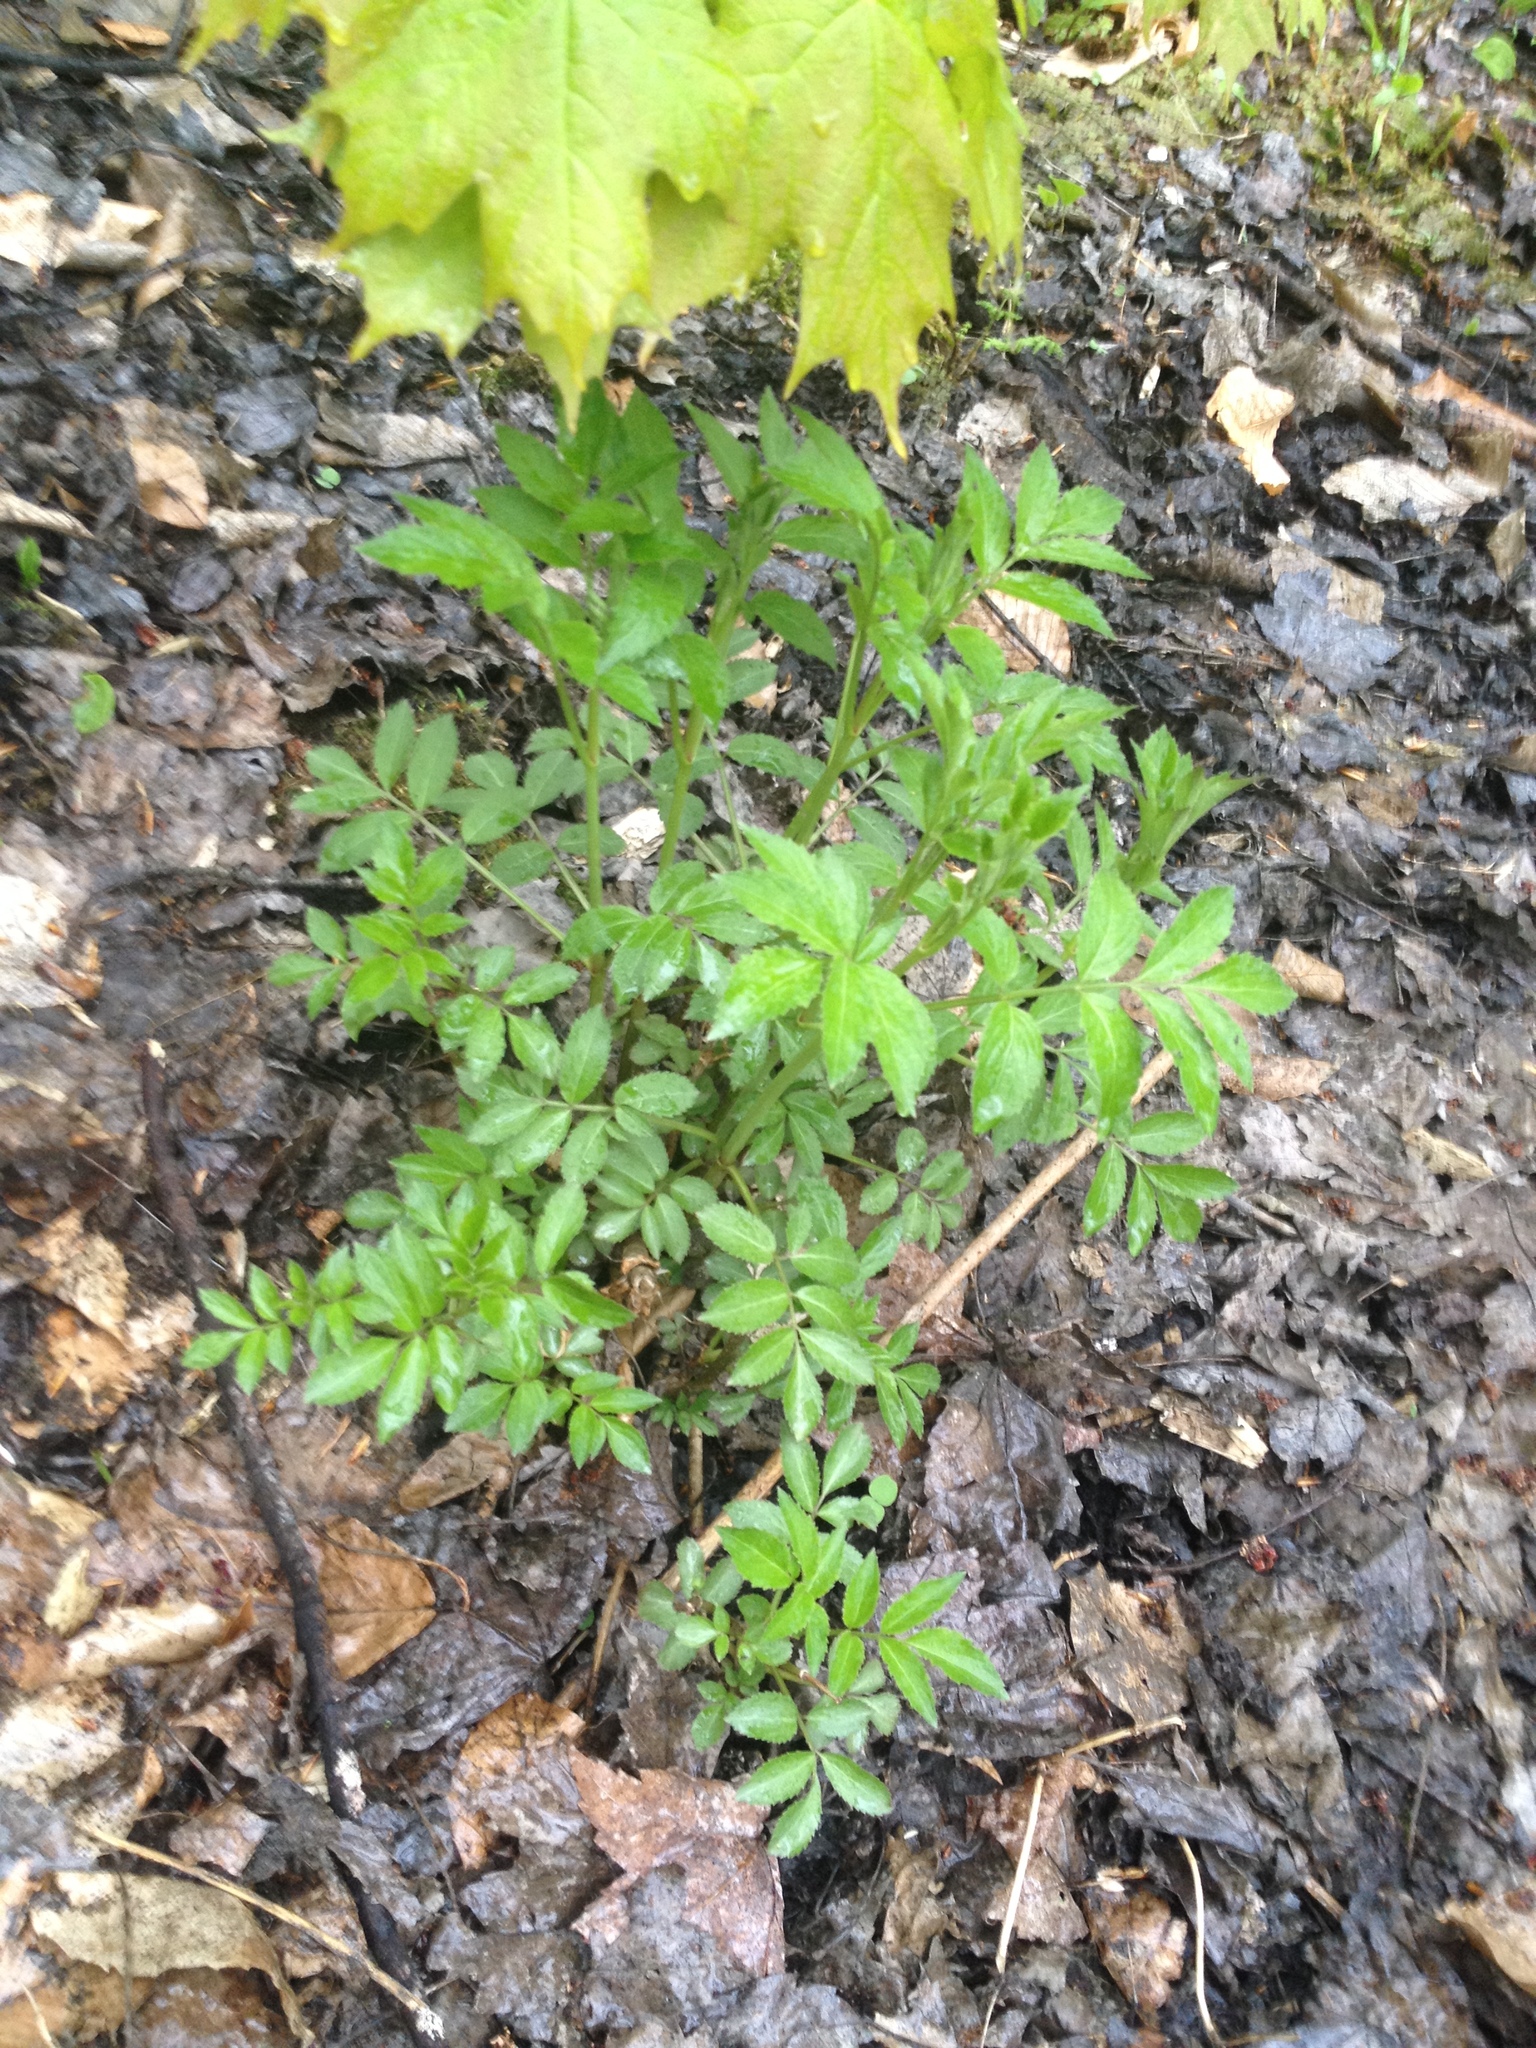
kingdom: Plantae
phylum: Tracheophyta
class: Magnoliopsida
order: Dipsacales
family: Viburnaceae
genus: Sambucus
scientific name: Sambucus
